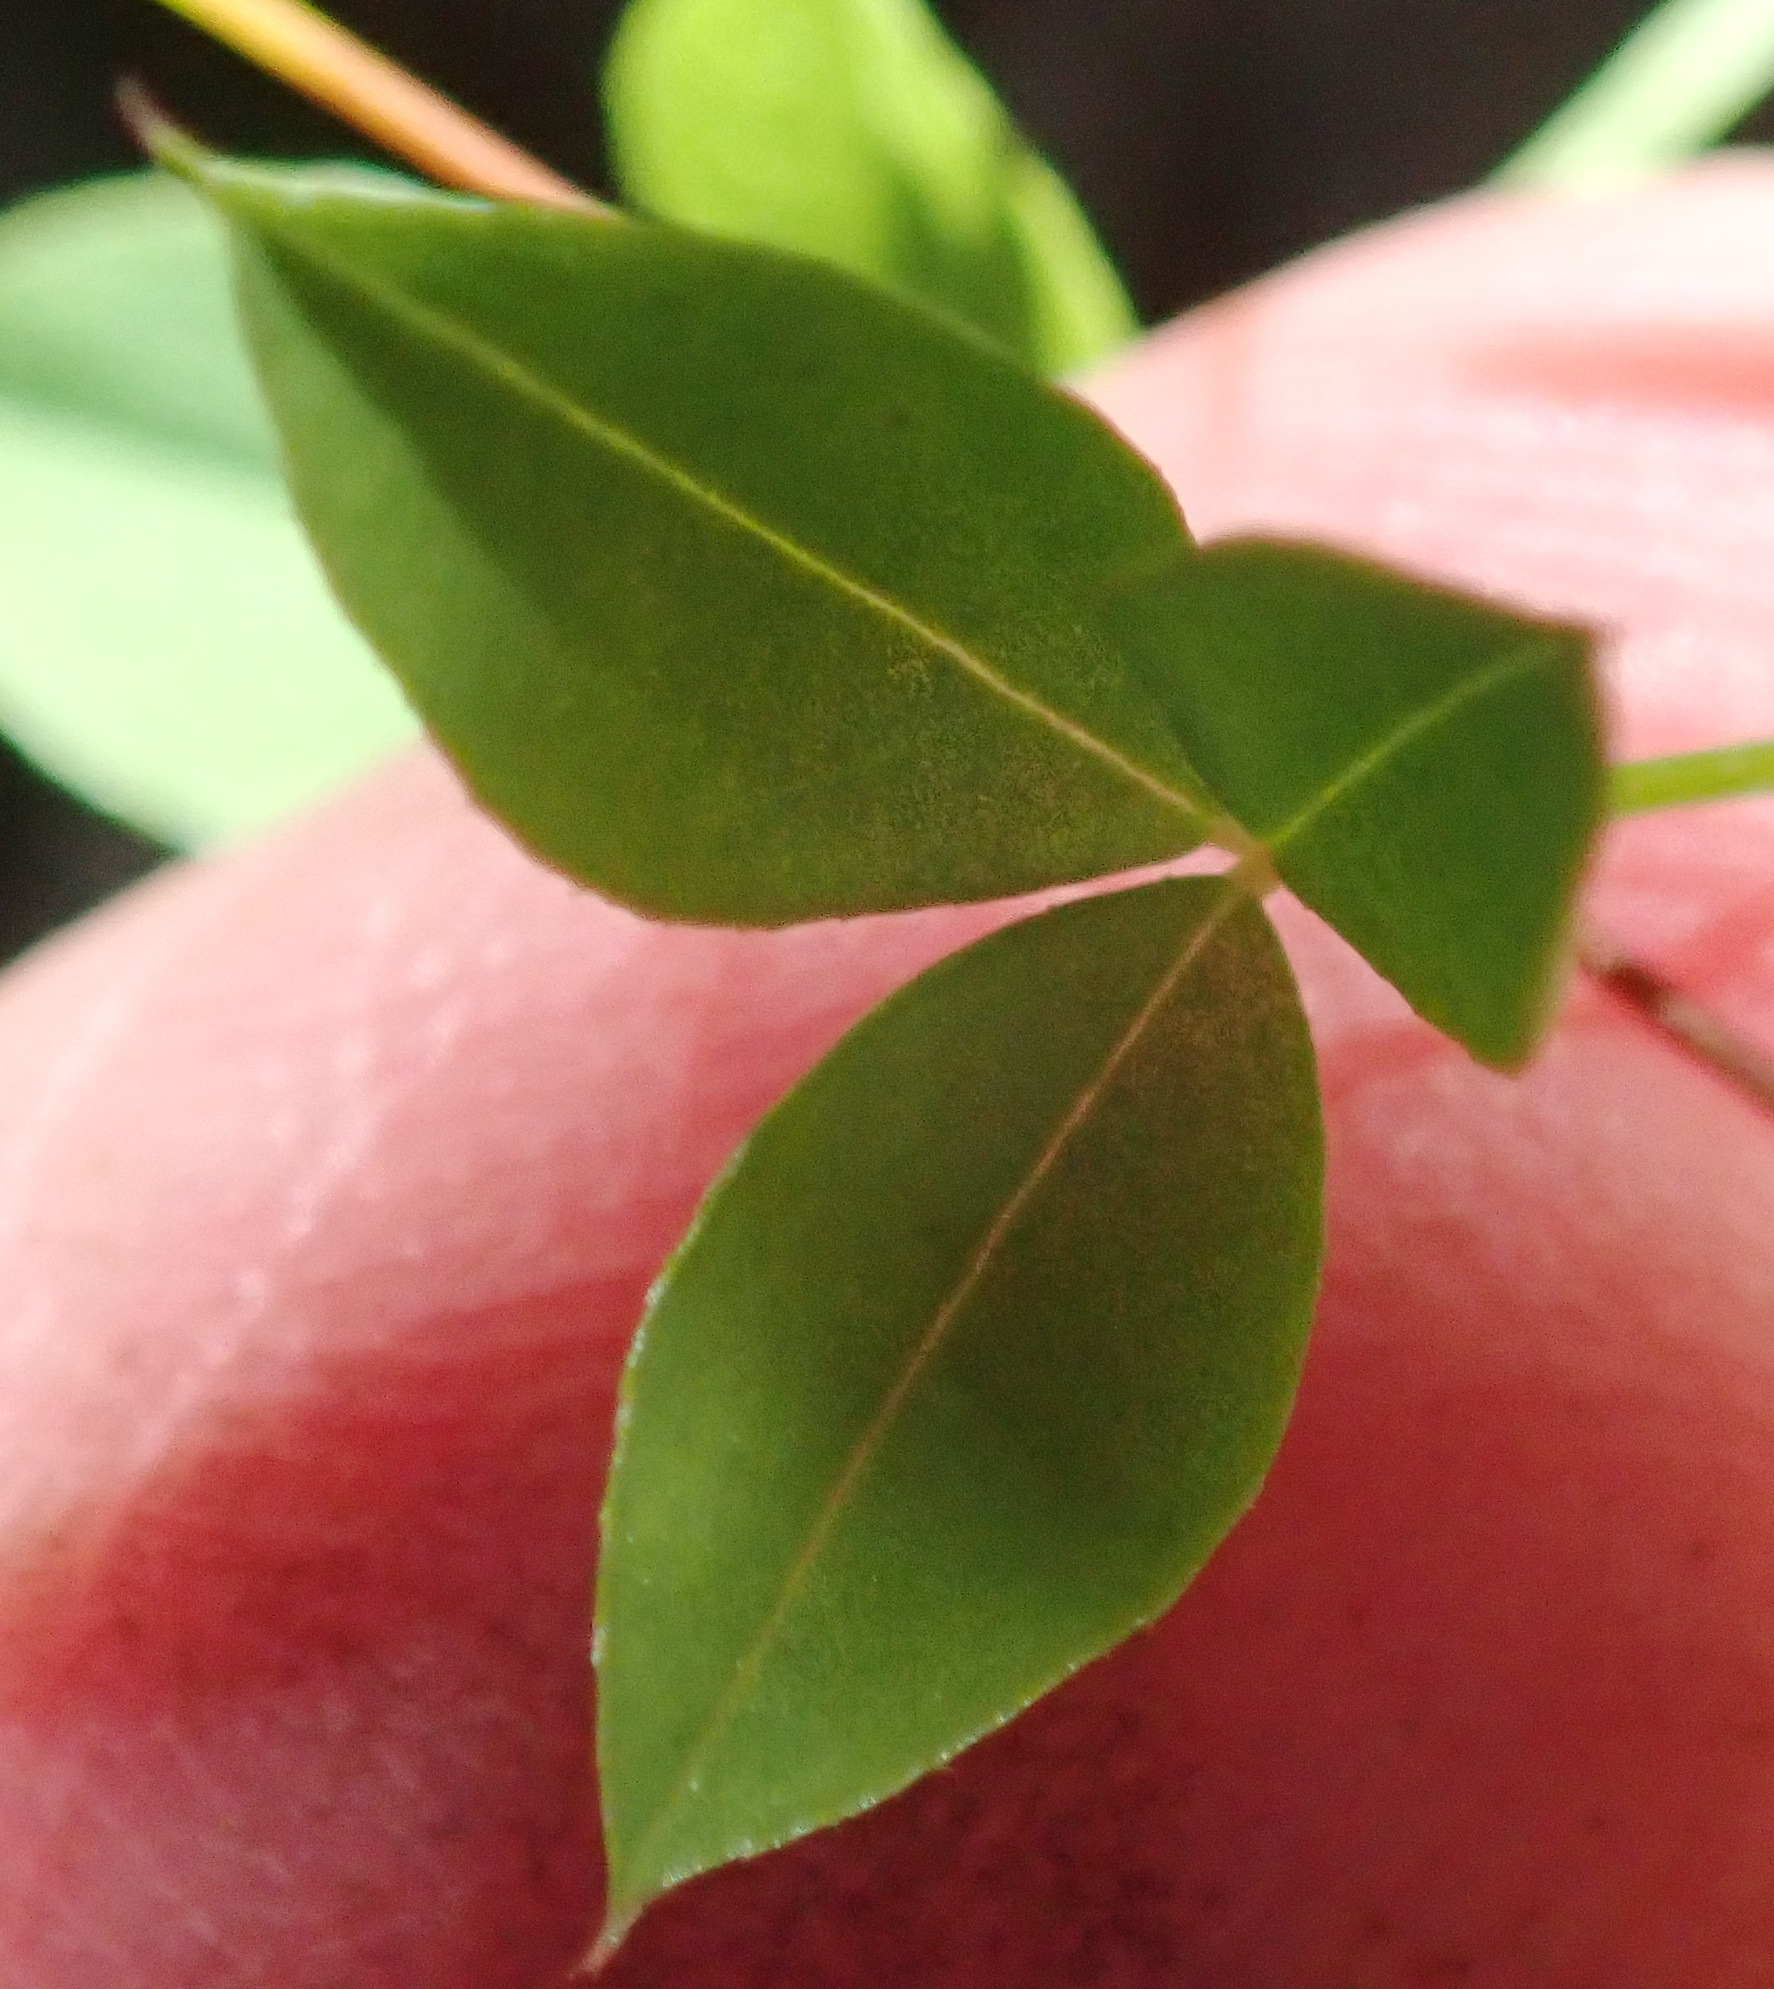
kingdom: Plantae
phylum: Tracheophyta
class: Magnoliopsida
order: Fabales
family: Fabaceae
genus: Indigofera
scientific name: Indigofera erecta
